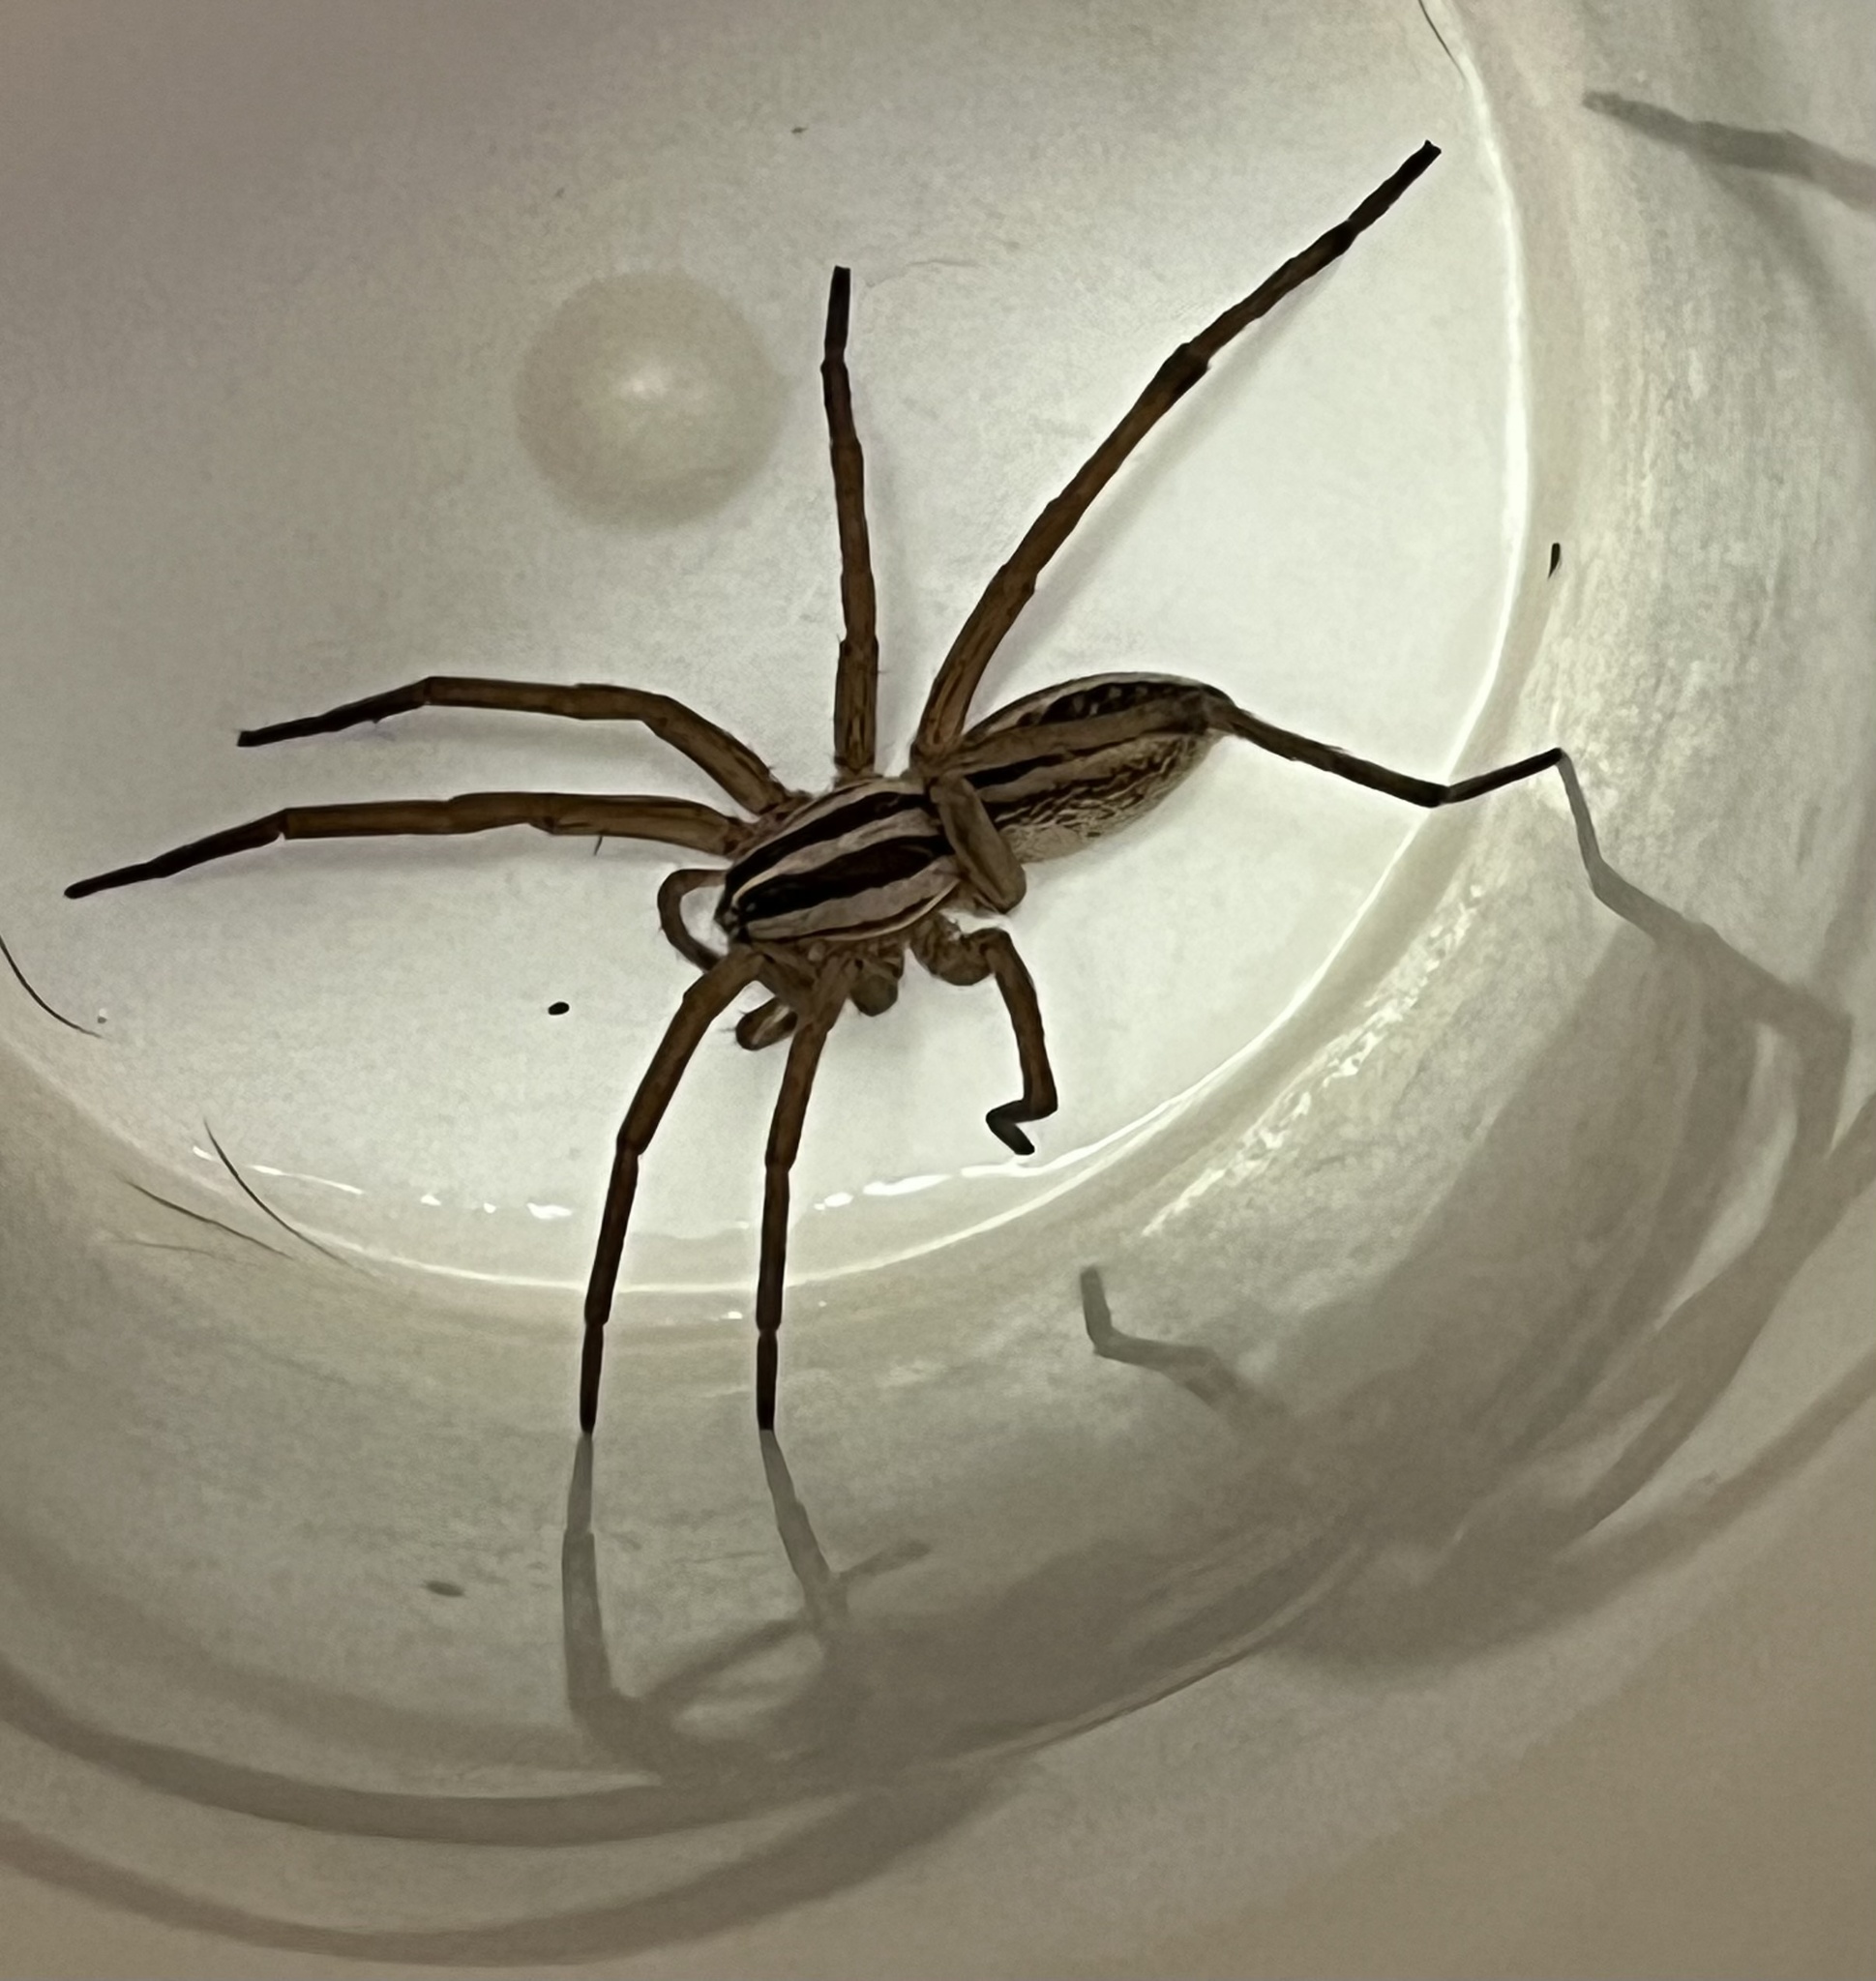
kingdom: Animalia
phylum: Arthropoda
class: Arachnida
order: Araneae
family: Lycosidae
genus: Rabidosa
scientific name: Rabidosa rabida
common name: Rabid wolf spider
